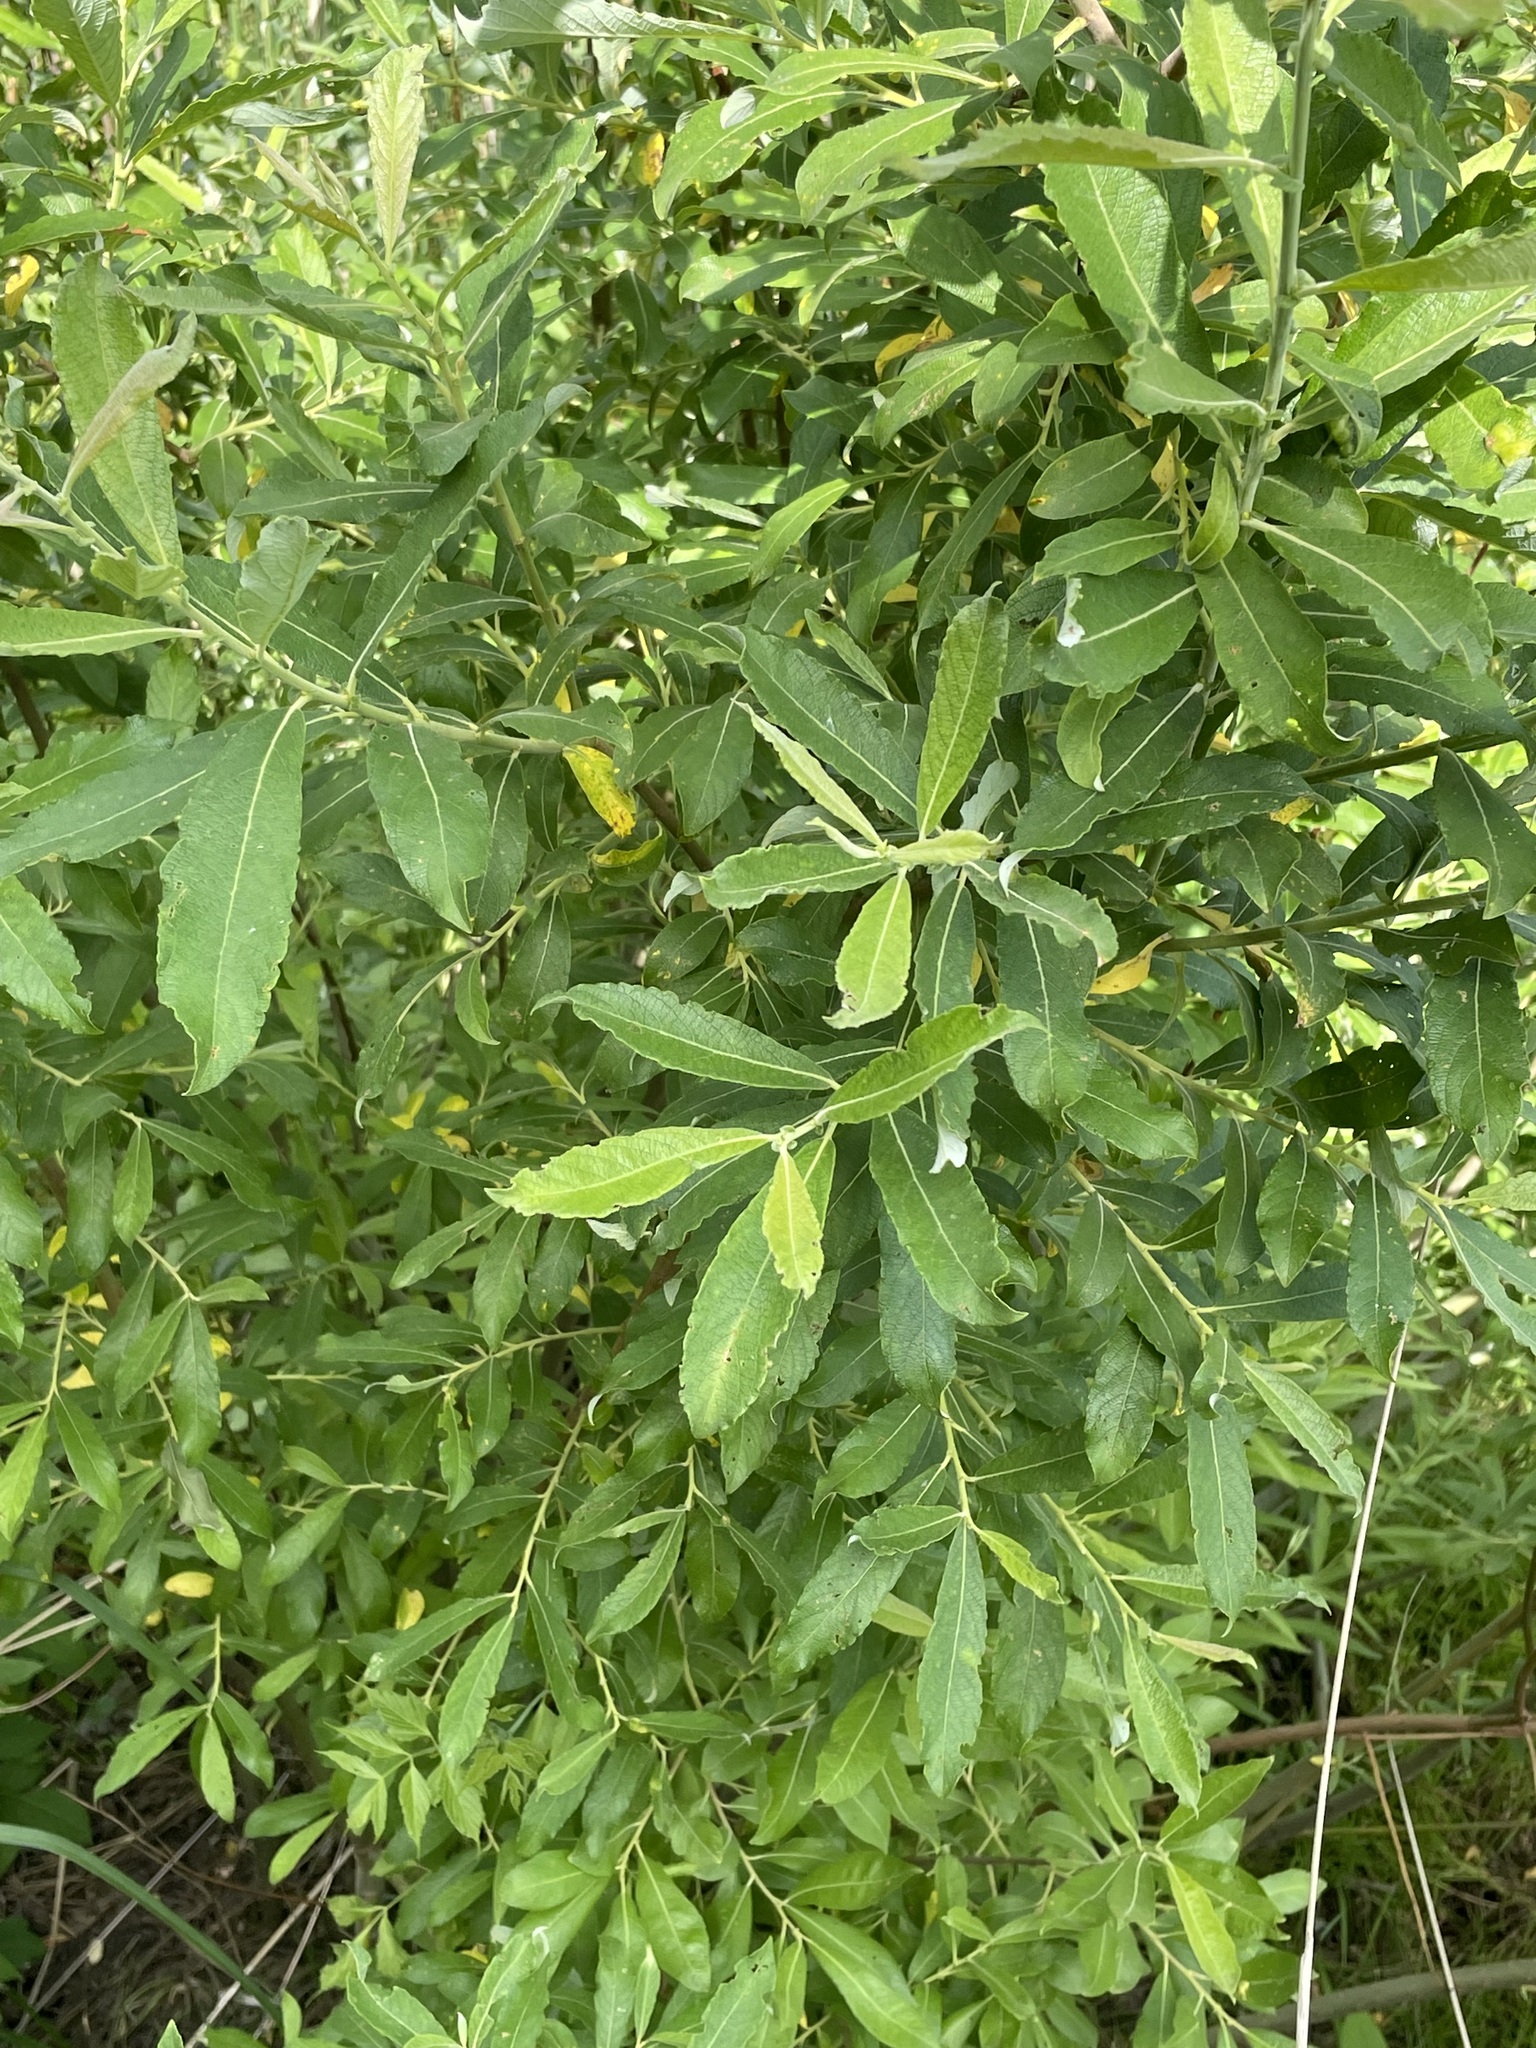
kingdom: Plantae
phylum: Tracheophyta
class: Magnoliopsida
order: Malpighiales
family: Salicaceae
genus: Salix
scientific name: Salix cinerea
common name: Common sallow
